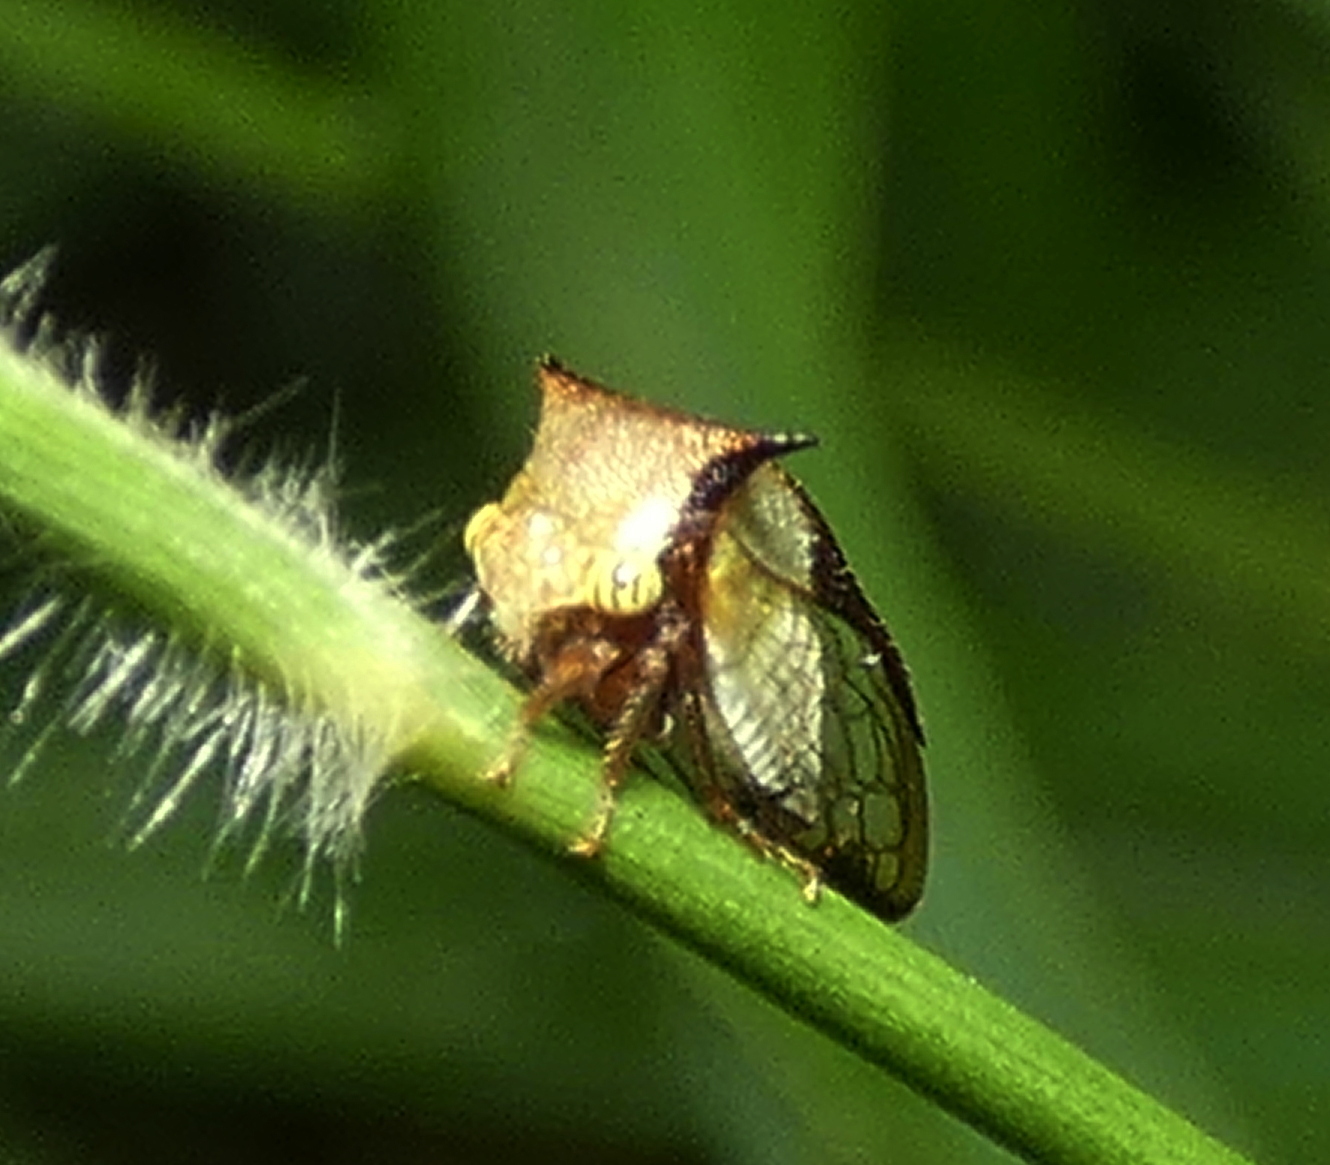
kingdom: Animalia
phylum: Arthropoda
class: Insecta
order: Hemiptera
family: Membracidae
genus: Ceresa
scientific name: Ceresa ustulata
